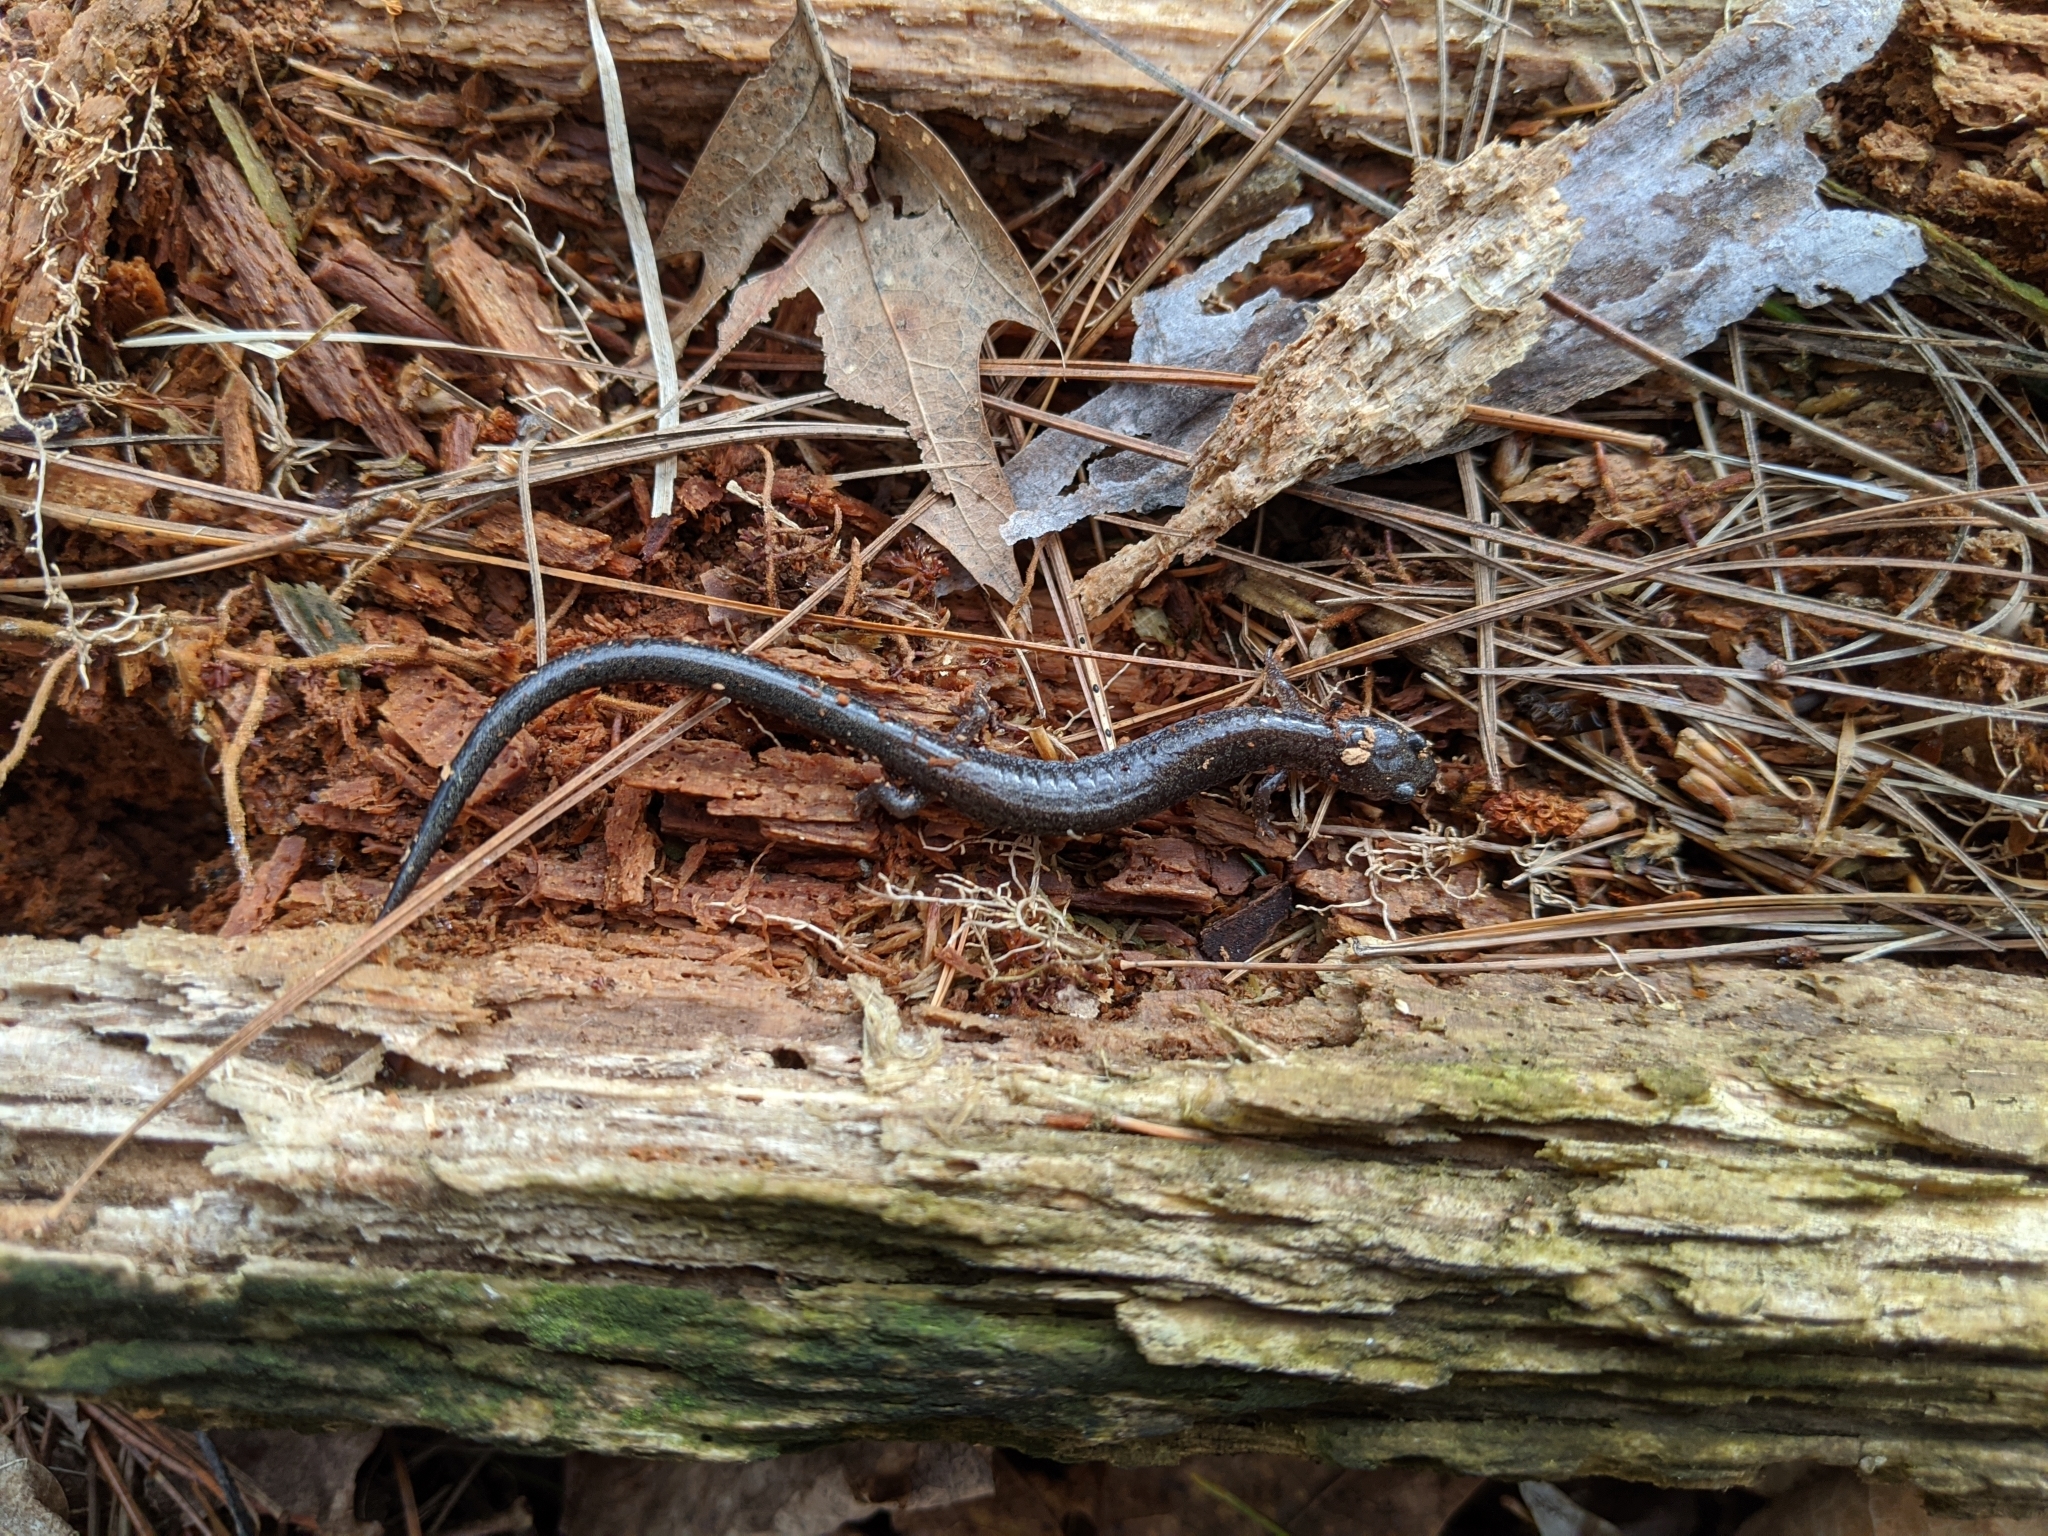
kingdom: Animalia
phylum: Chordata
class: Amphibia
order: Caudata
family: Plethodontidae
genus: Plethodon
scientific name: Plethodon cinereus
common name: Redback salamander
